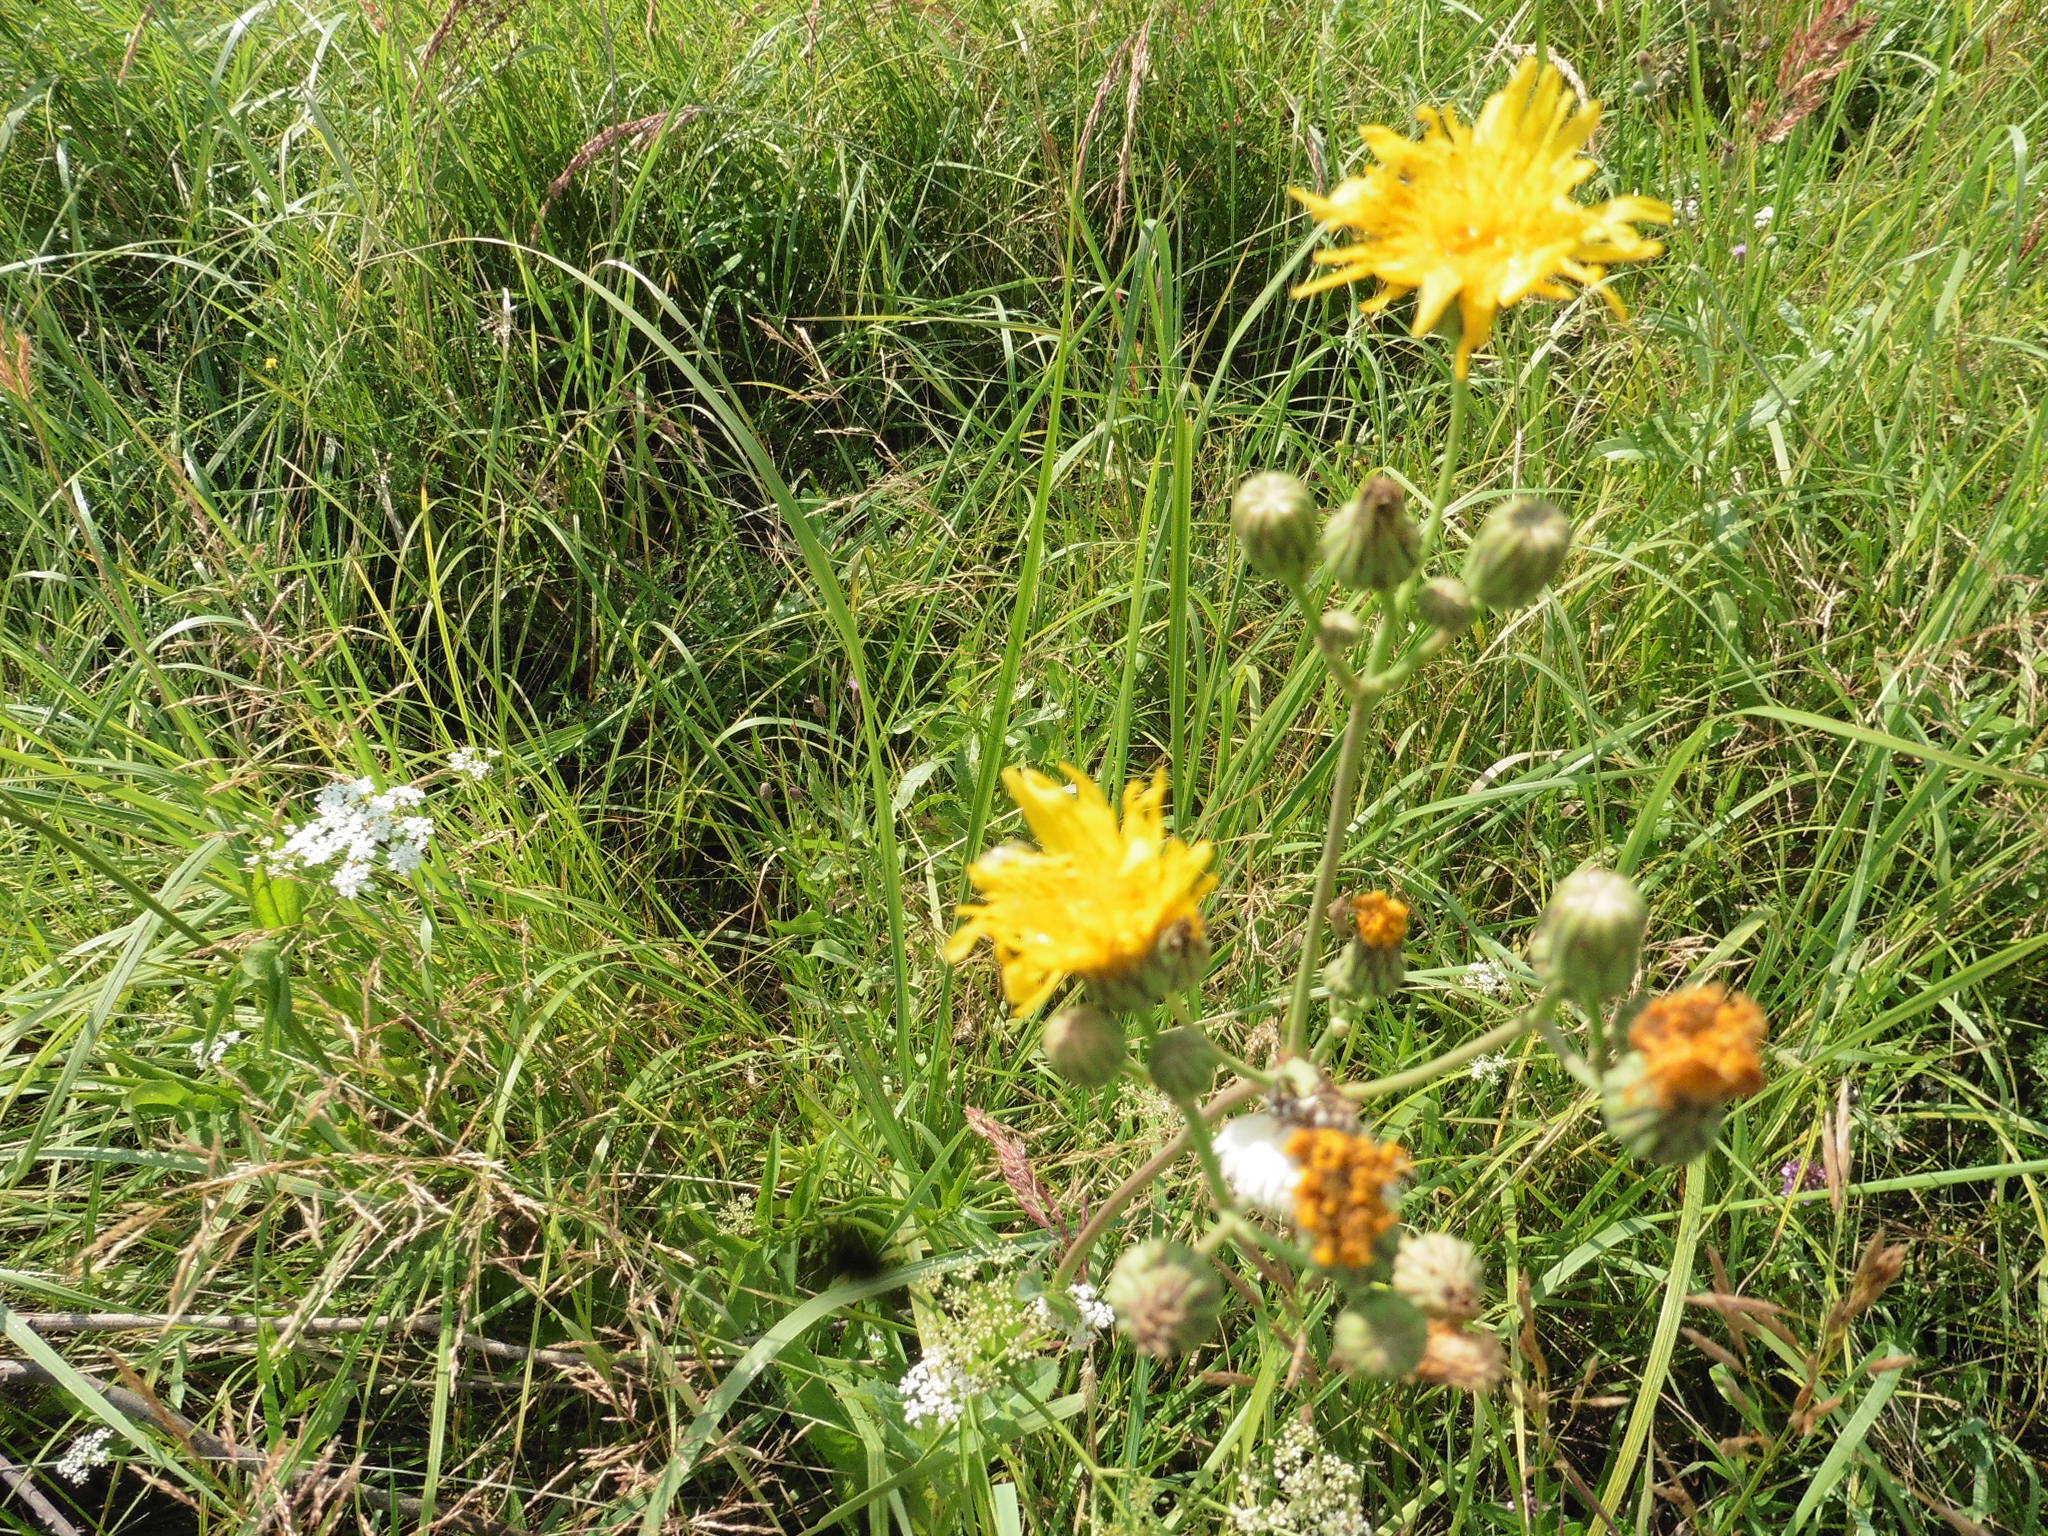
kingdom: Plantae
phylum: Tracheophyta
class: Magnoliopsida
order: Asterales
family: Asteraceae
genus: Sonchus
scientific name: Sonchus arvensis
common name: Perennial sow-thistle
